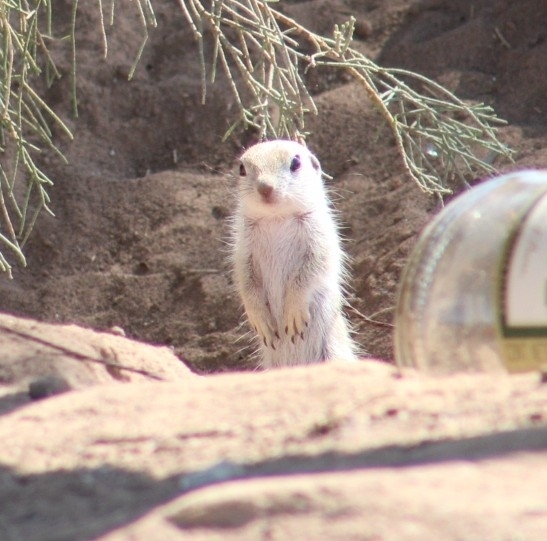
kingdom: Animalia
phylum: Chordata
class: Mammalia
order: Rodentia
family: Sciuridae
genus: Xerospermophilus
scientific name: Xerospermophilus tereticaudus
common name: Round-tailed ground squirrel
